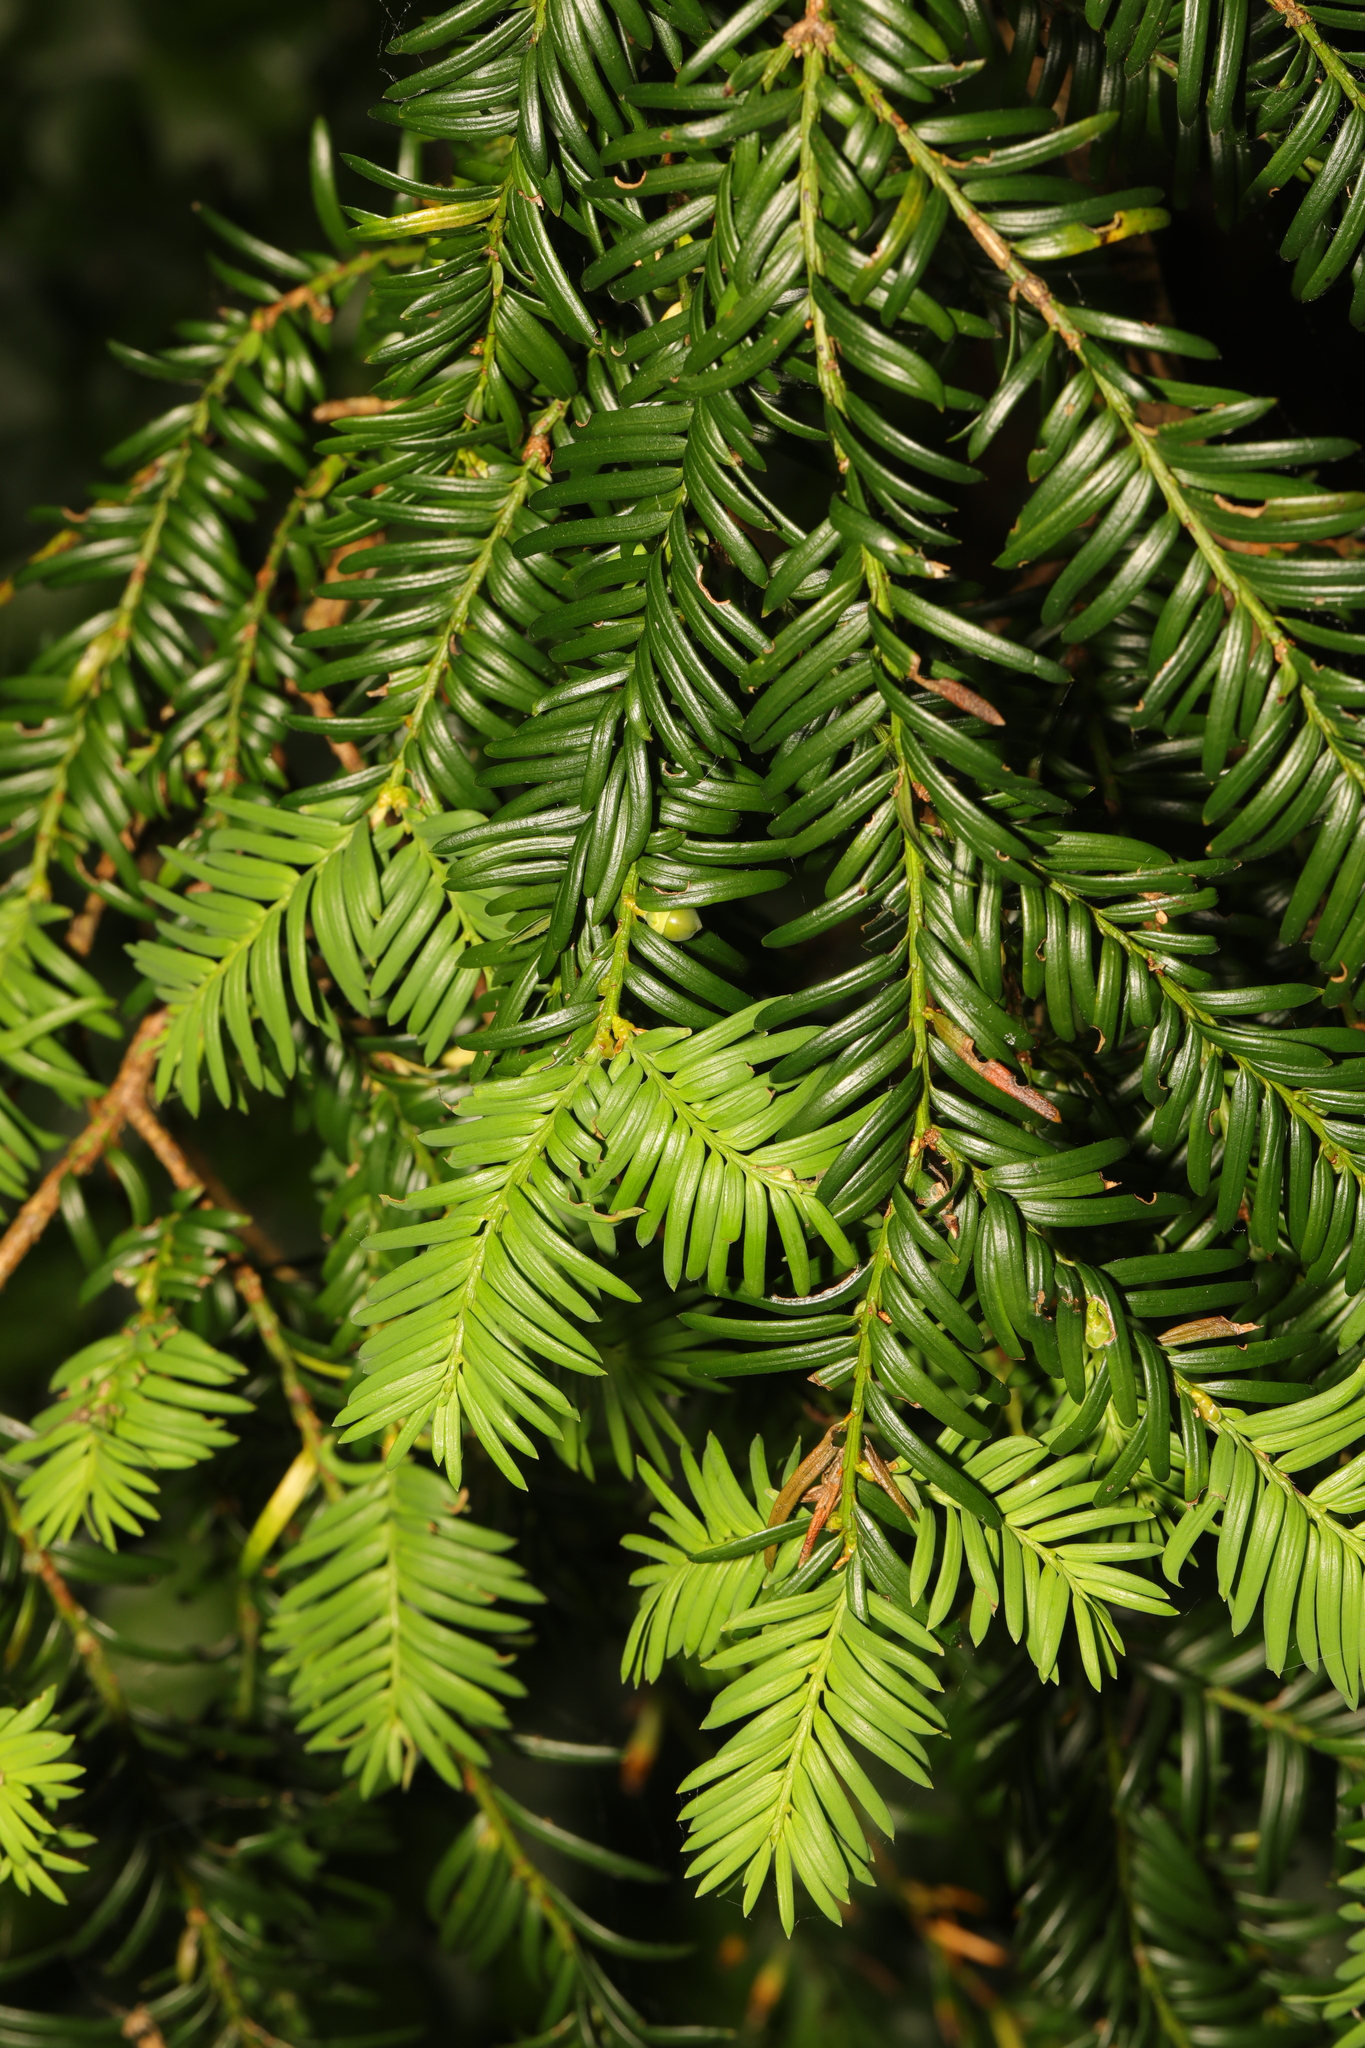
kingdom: Plantae
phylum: Tracheophyta
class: Pinopsida
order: Pinales
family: Taxaceae
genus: Taxus
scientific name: Taxus baccata
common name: Yew
